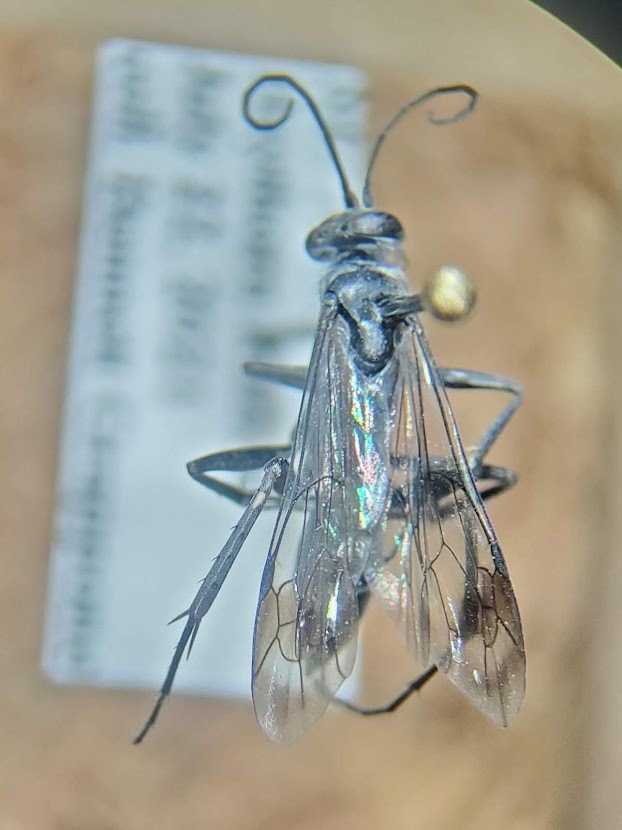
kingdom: Animalia
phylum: Arthropoda
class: Insecta
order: Hymenoptera
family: Pompilidae
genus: Agenioideus
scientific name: Agenioideus humilis
